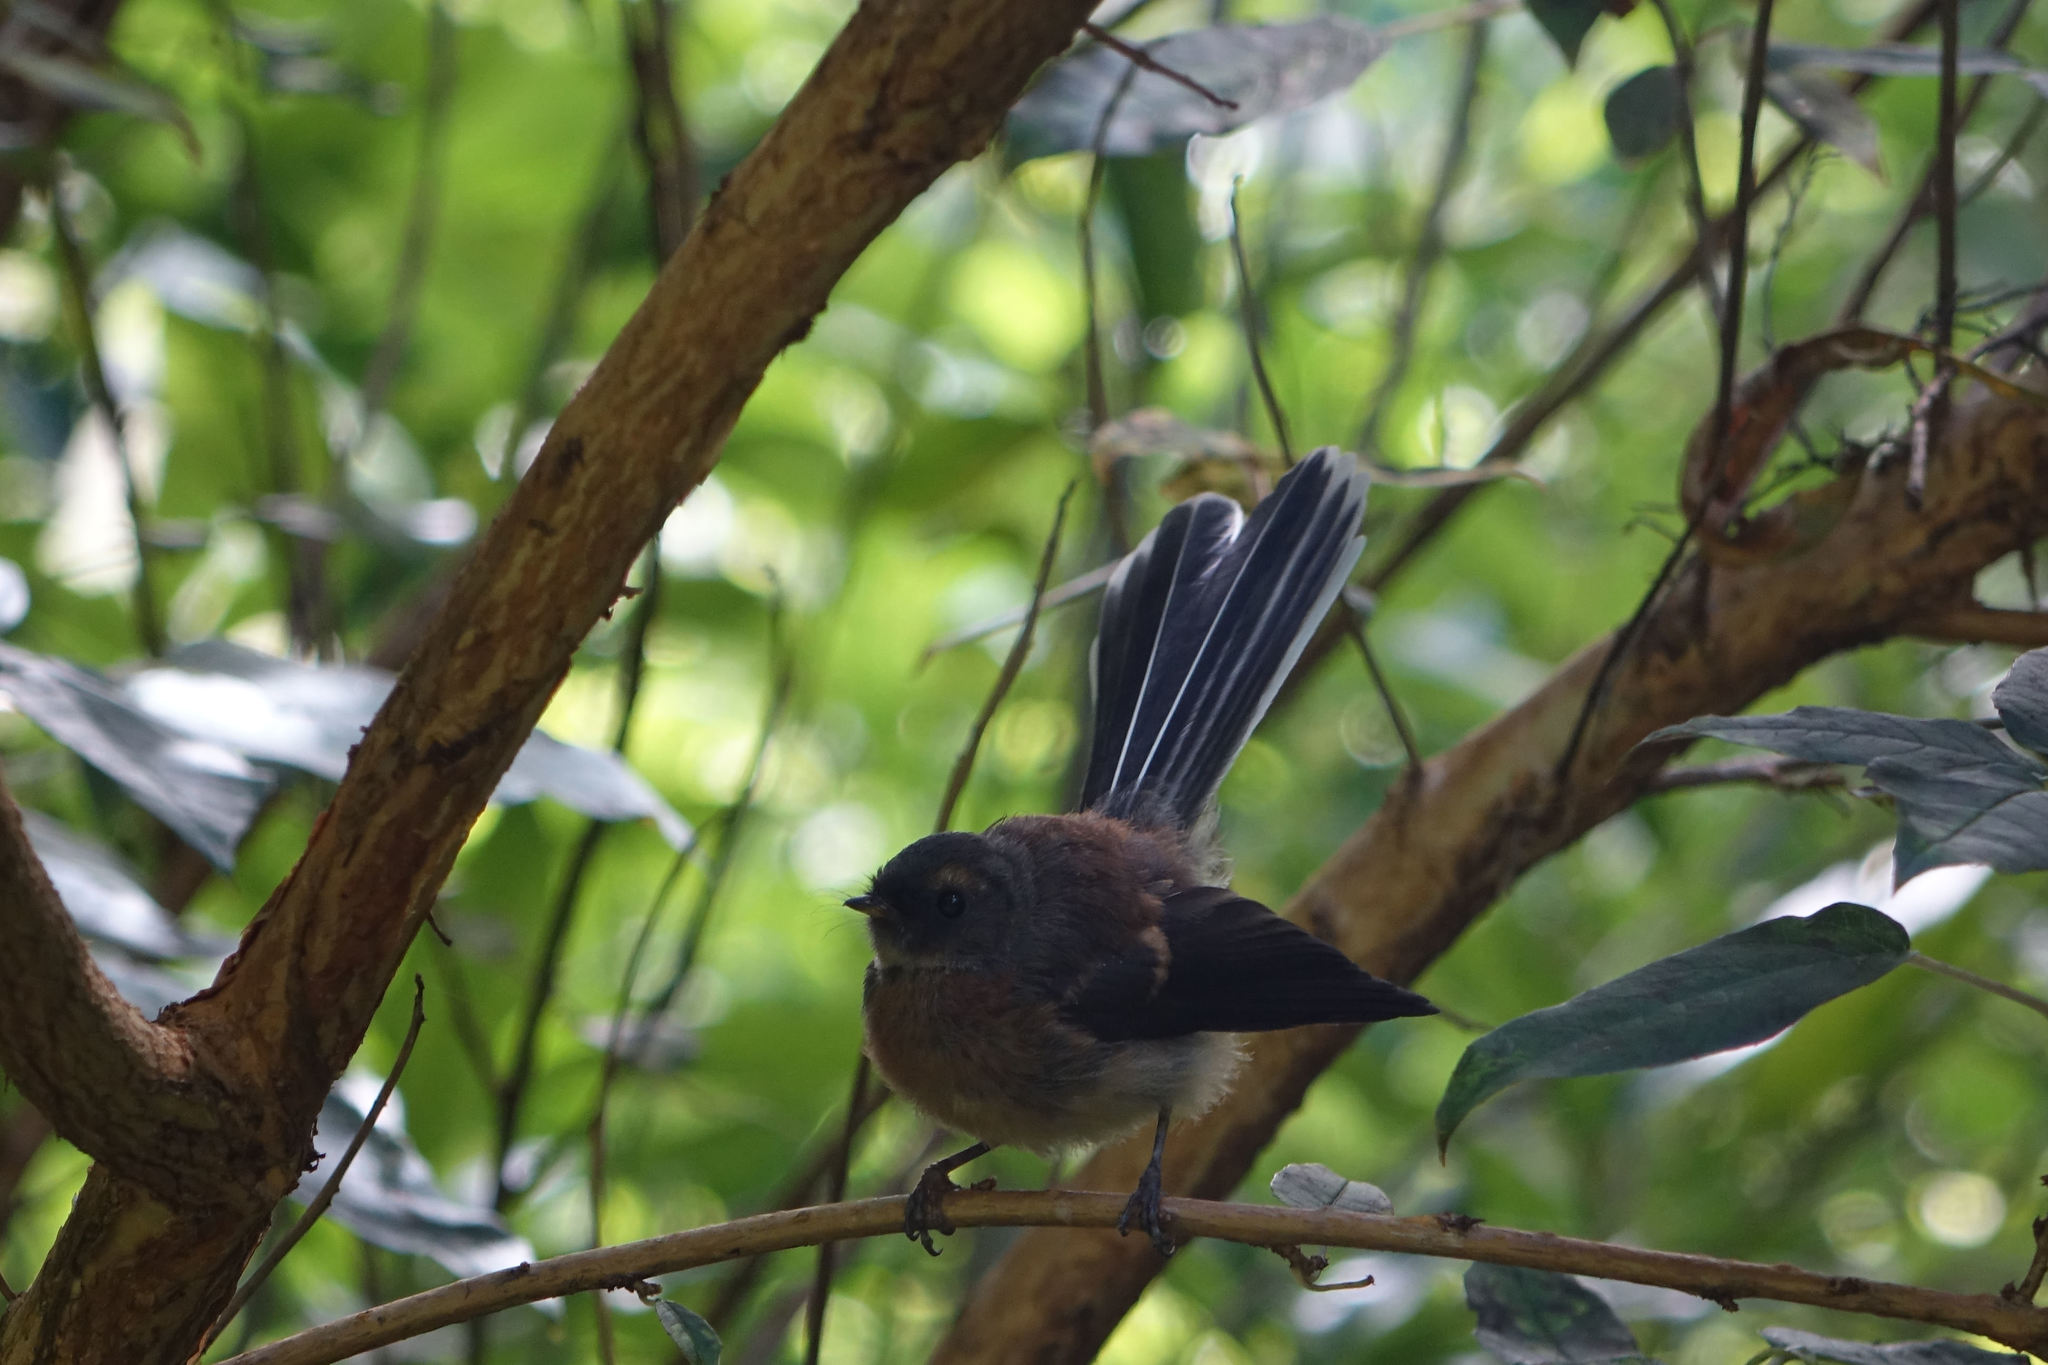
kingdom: Animalia
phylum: Chordata
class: Aves
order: Passeriformes
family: Rhipiduridae
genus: Rhipidura
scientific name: Rhipidura fuliginosa
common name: New zealand fantail
